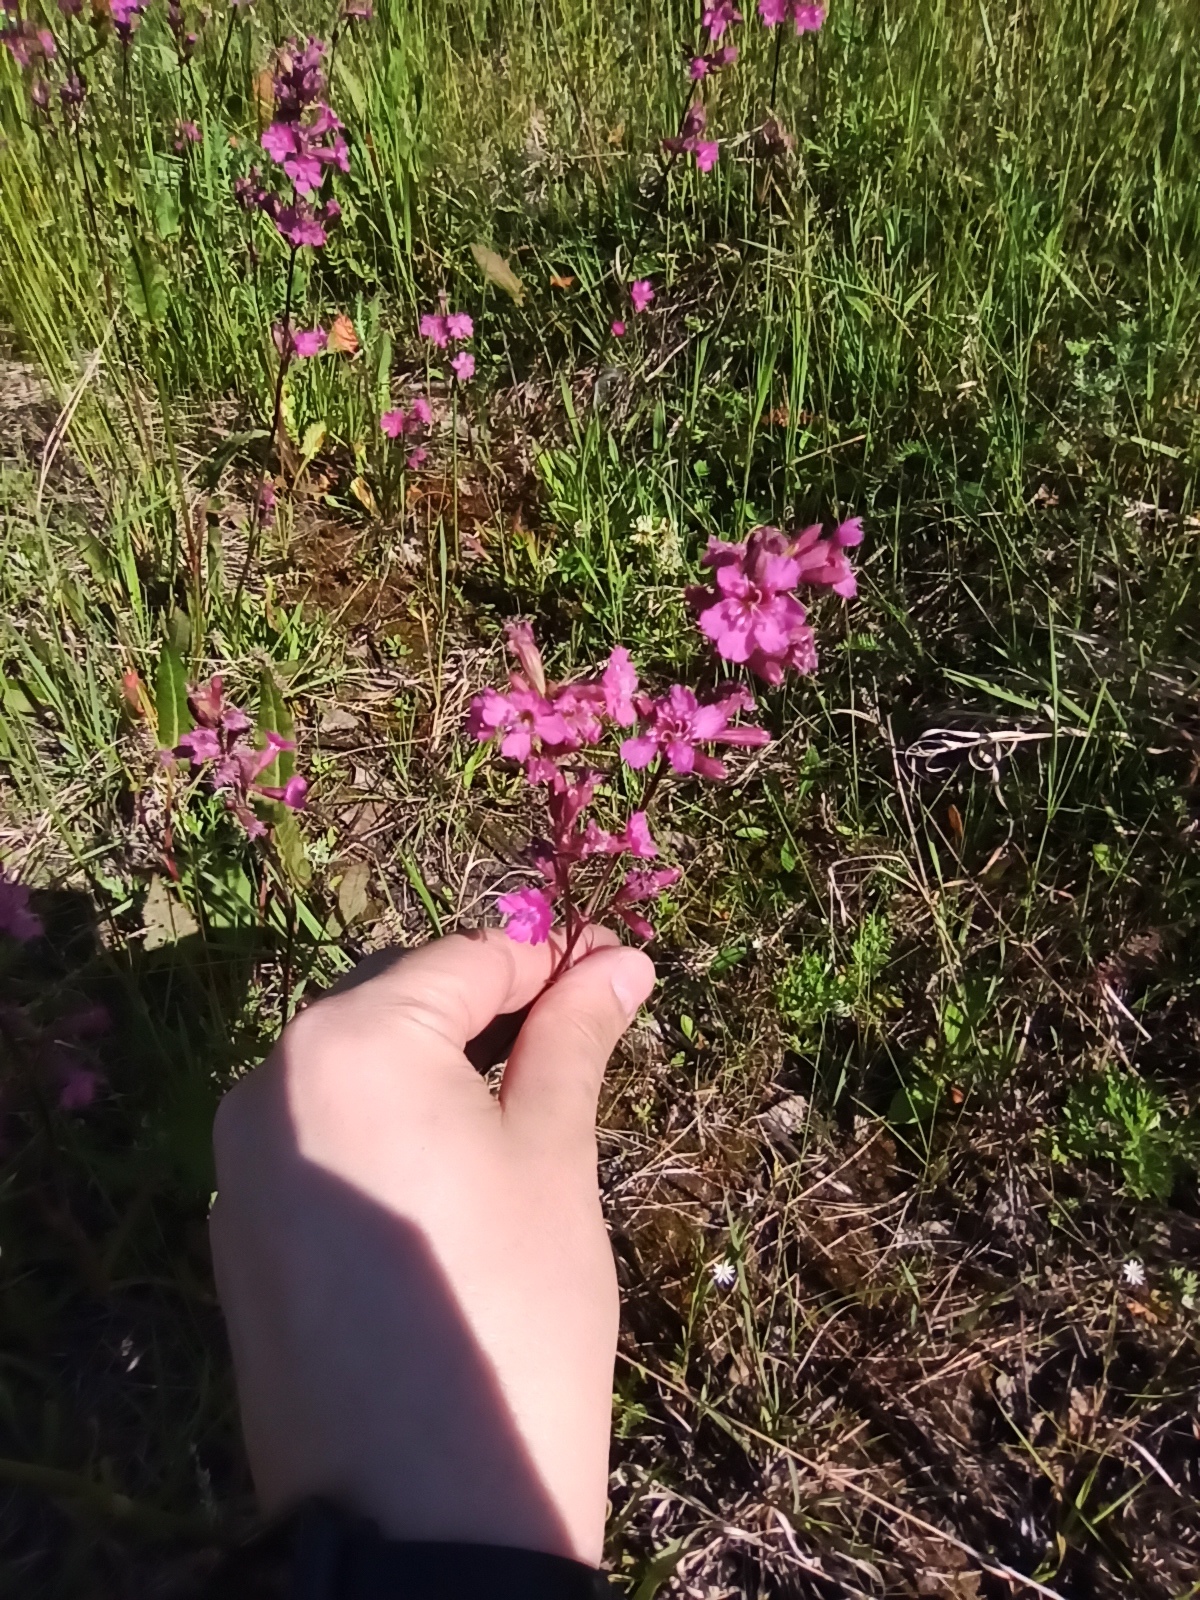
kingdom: Plantae
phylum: Tracheophyta
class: Magnoliopsida
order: Caryophyllales
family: Caryophyllaceae
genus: Viscaria
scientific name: Viscaria vulgaris
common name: Clammy campion
